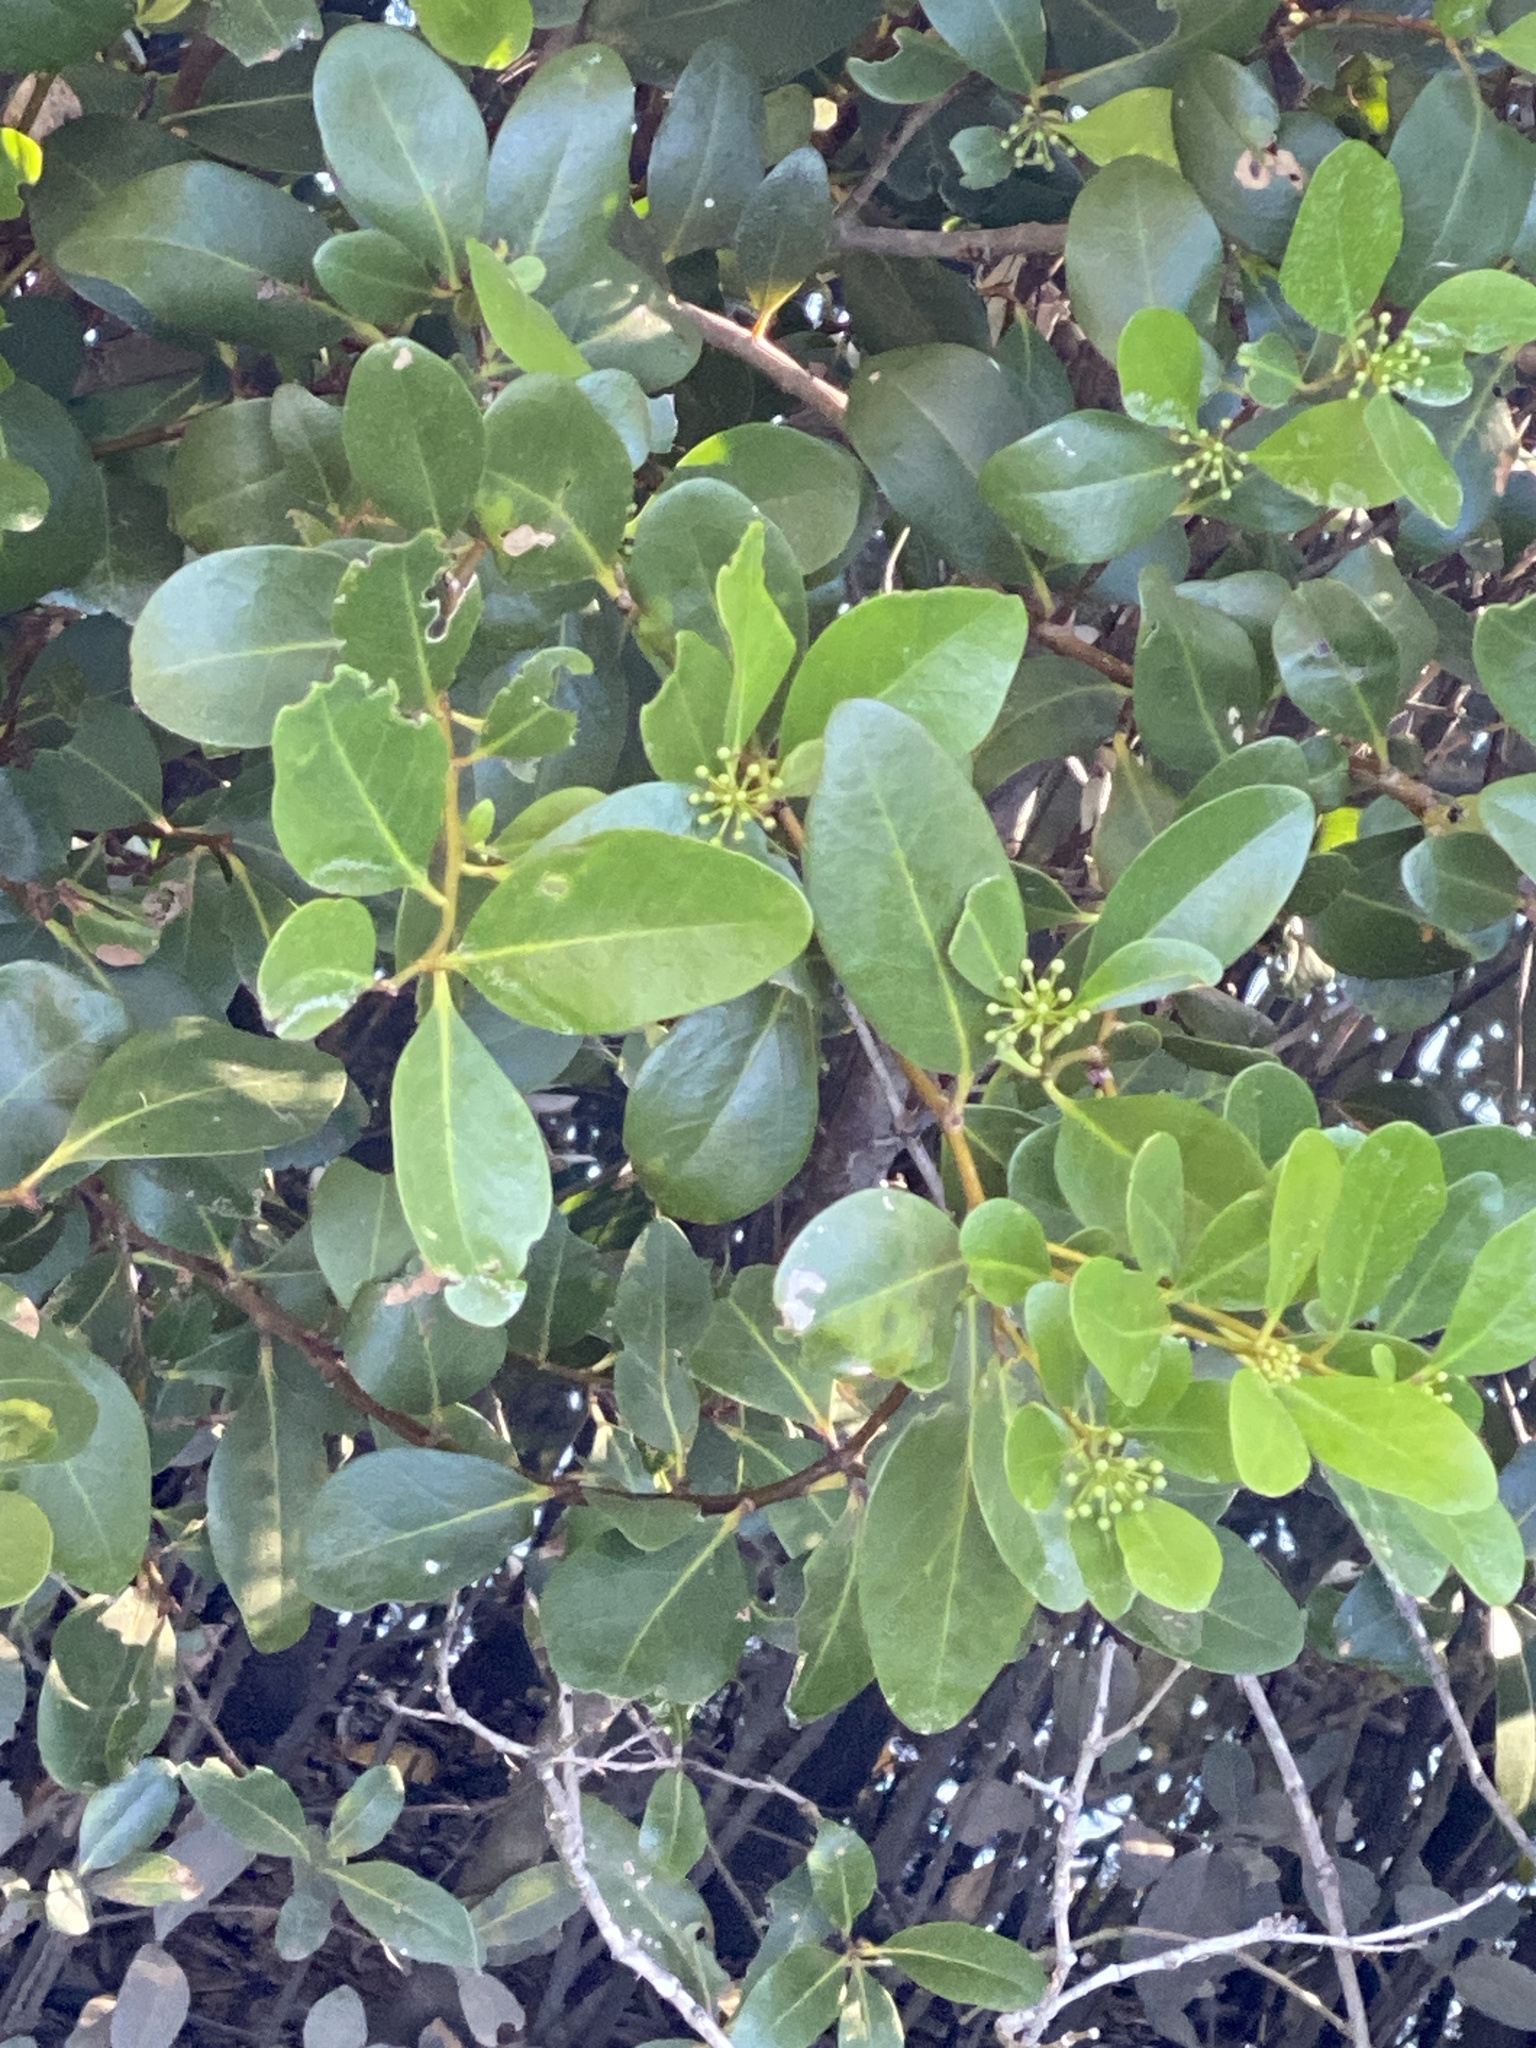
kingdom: Plantae
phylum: Tracheophyta
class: Magnoliopsida
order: Ericales
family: Primulaceae
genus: Aegiceras
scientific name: Aegiceras corniculatum
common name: River mangrove
